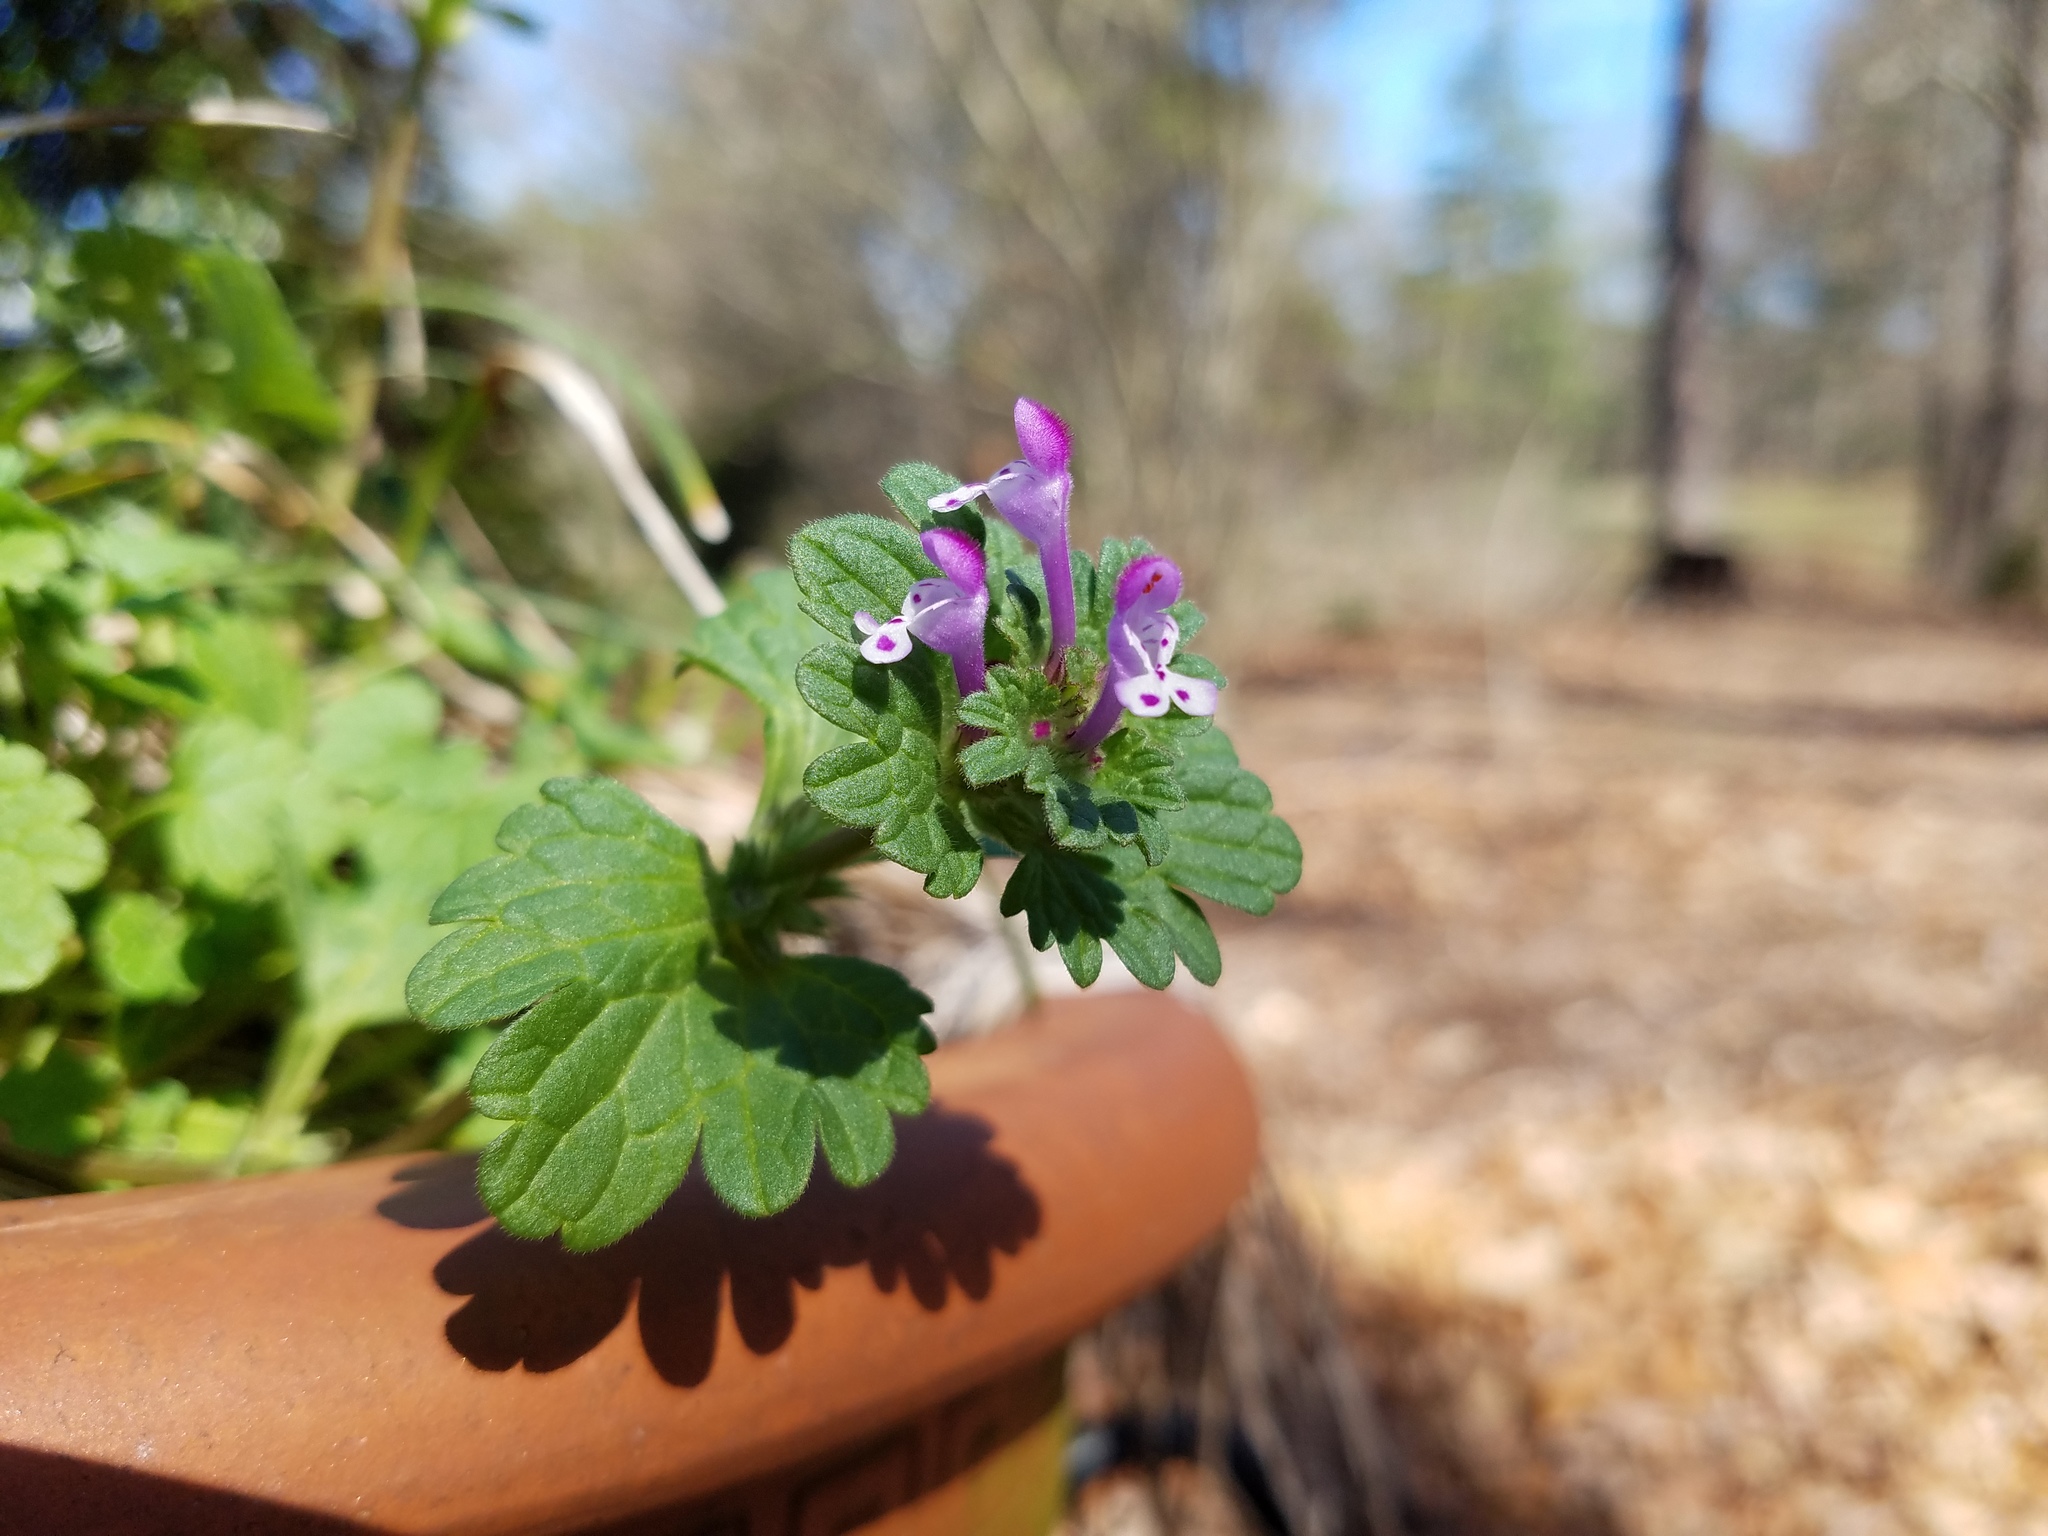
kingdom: Plantae
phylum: Tracheophyta
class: Magnoliopsida
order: Lamiales
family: Lamiaceae
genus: Lamium
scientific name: Lamium amplexicaule
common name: Henbit dead-nettle
